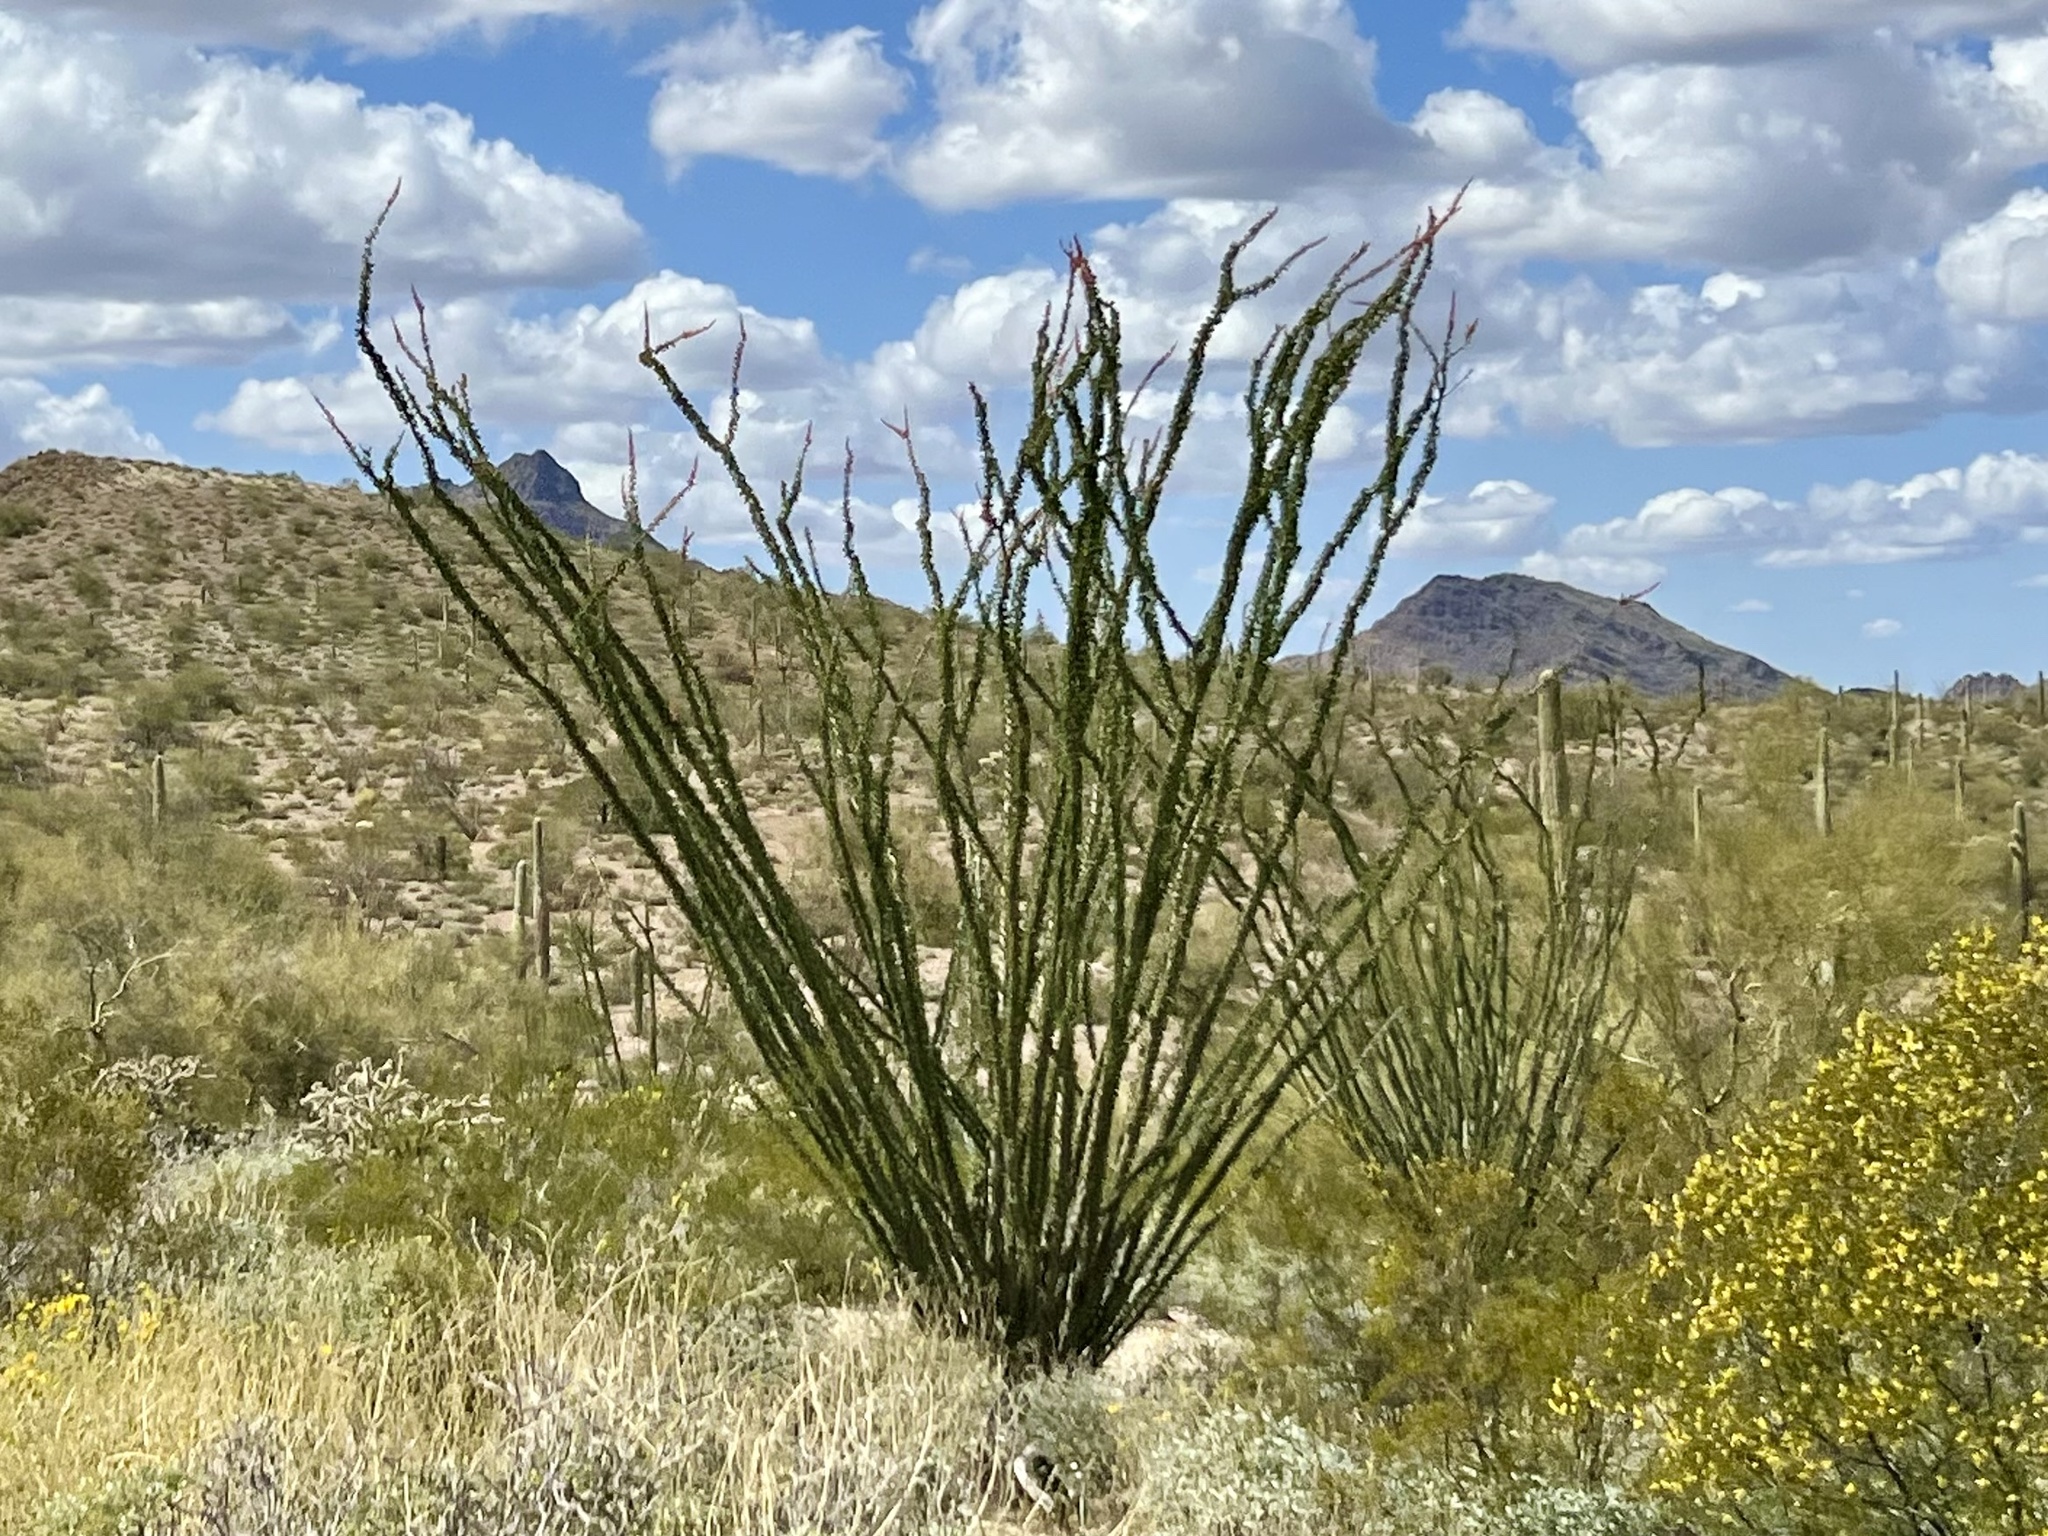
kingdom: Plantae
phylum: Tracheophyta
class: Magnoliopsida
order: Ericales
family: Fouquieriaceae
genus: Fouquieria
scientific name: Fouquieria splendens
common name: Vine-cactus
